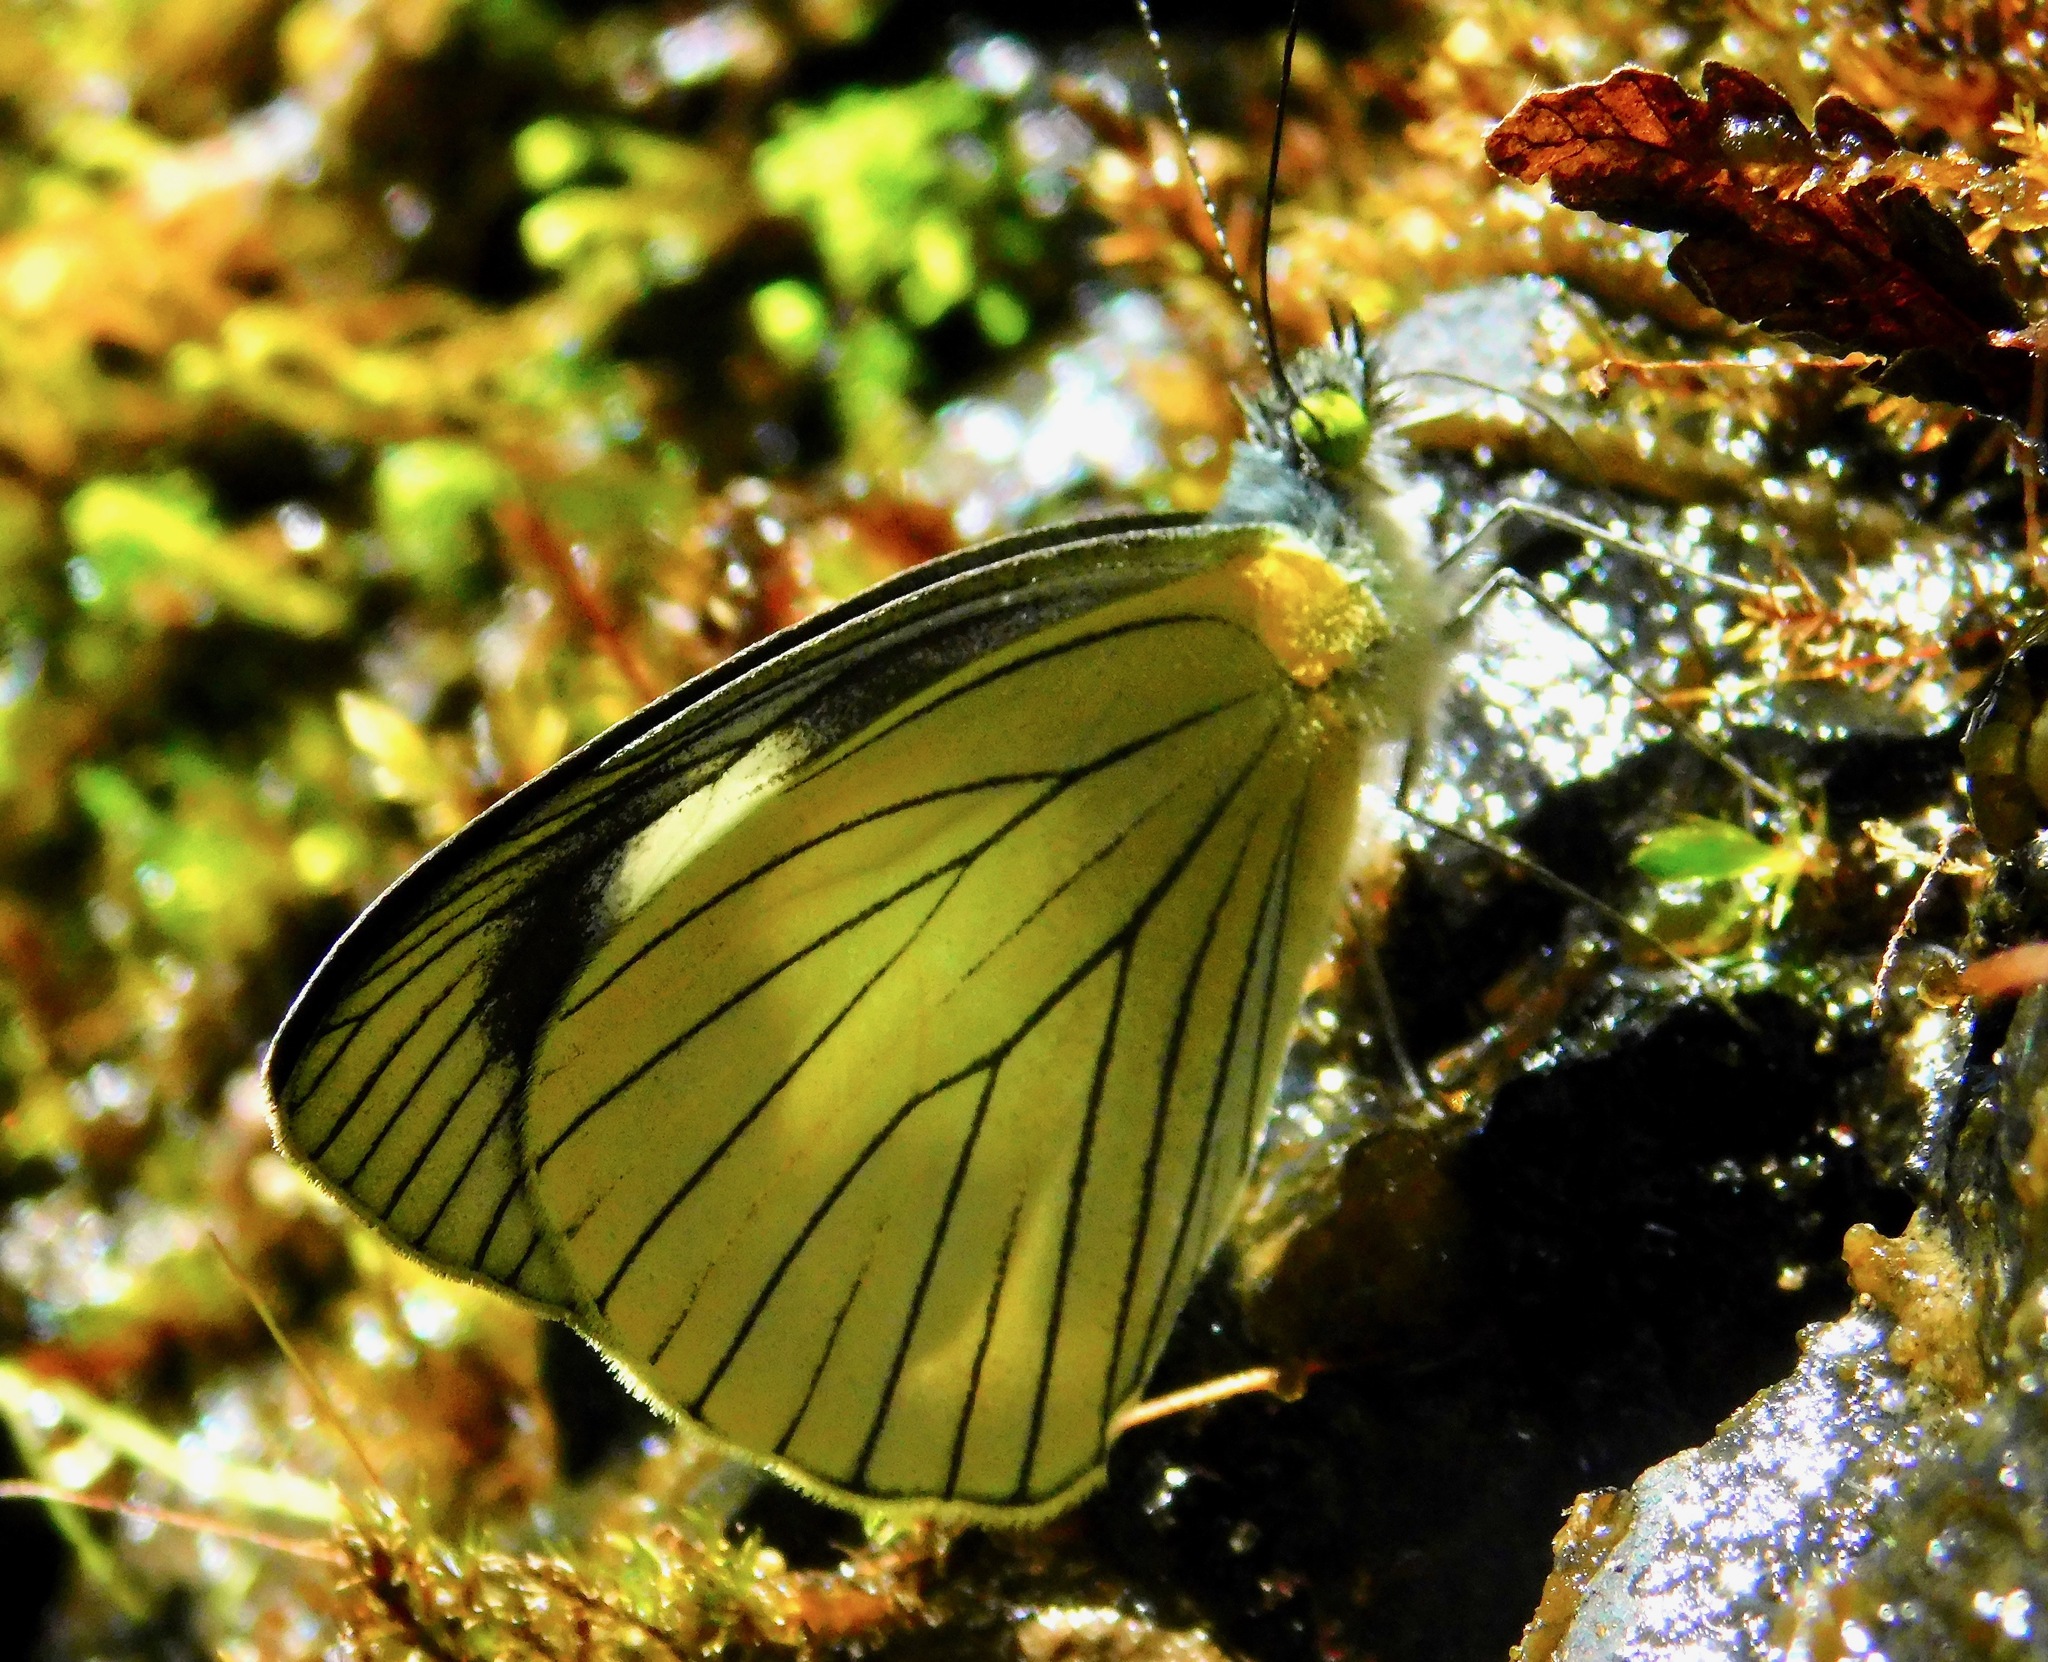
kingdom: Animalia
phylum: Arthropoda
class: Insecta
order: Lepidoptera
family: Pieridae
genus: Leptophobia
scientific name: Leptophobia tovaria
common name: Tovaria white
